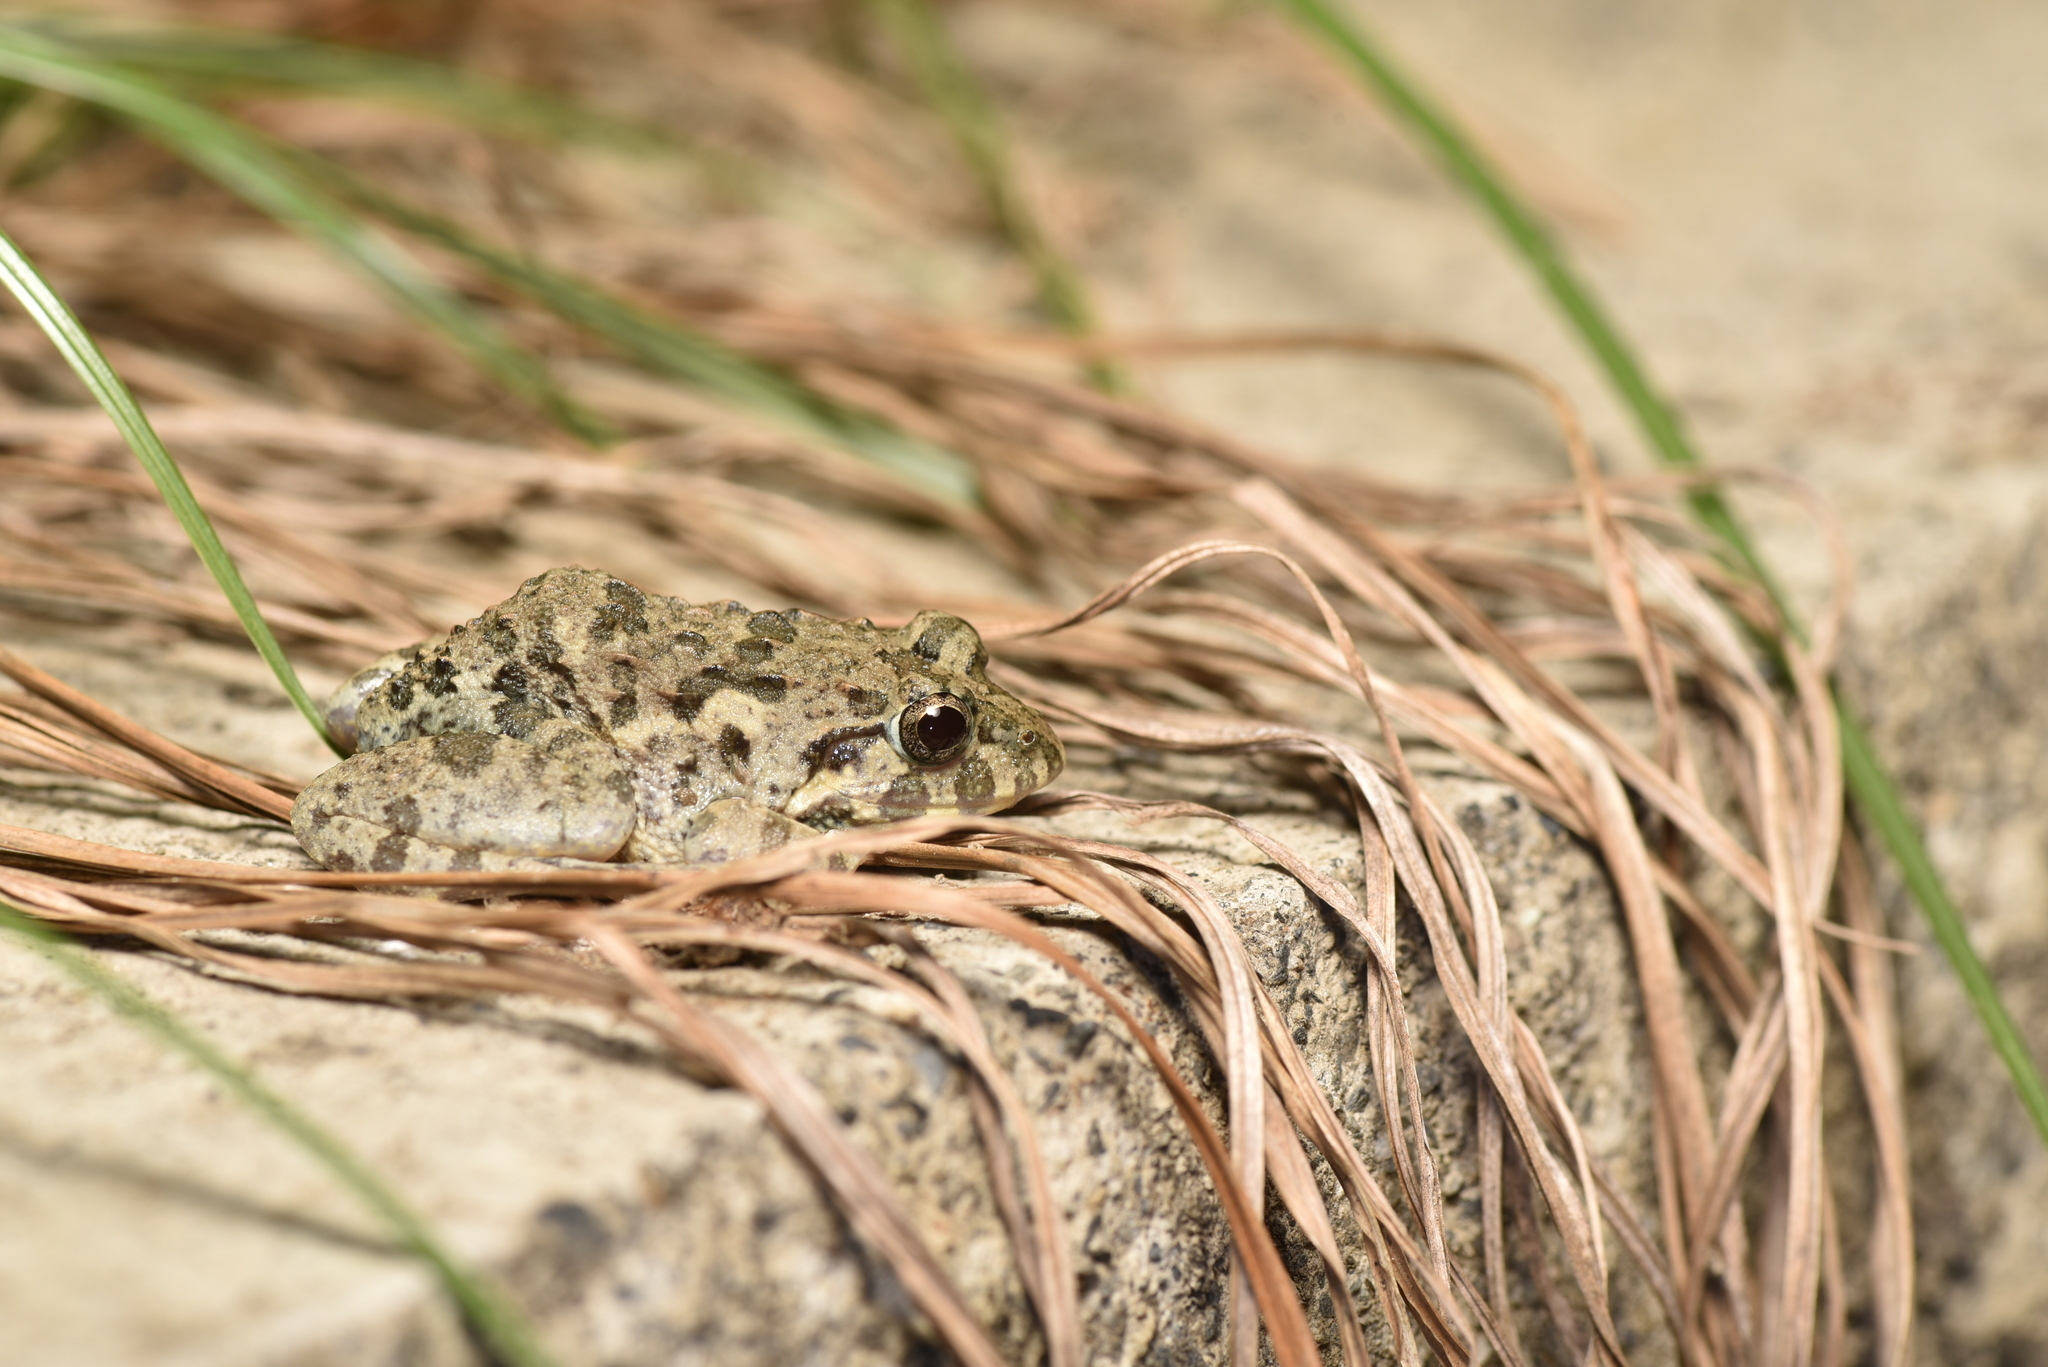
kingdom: Animalia
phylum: Chordata
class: Amphibia
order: Anura
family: Dicroglossidae
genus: Fejervarya
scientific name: Fejervarya limnocharis
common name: Asian grass frog/common pond frog/field frog/grass frog/indian rice frog
